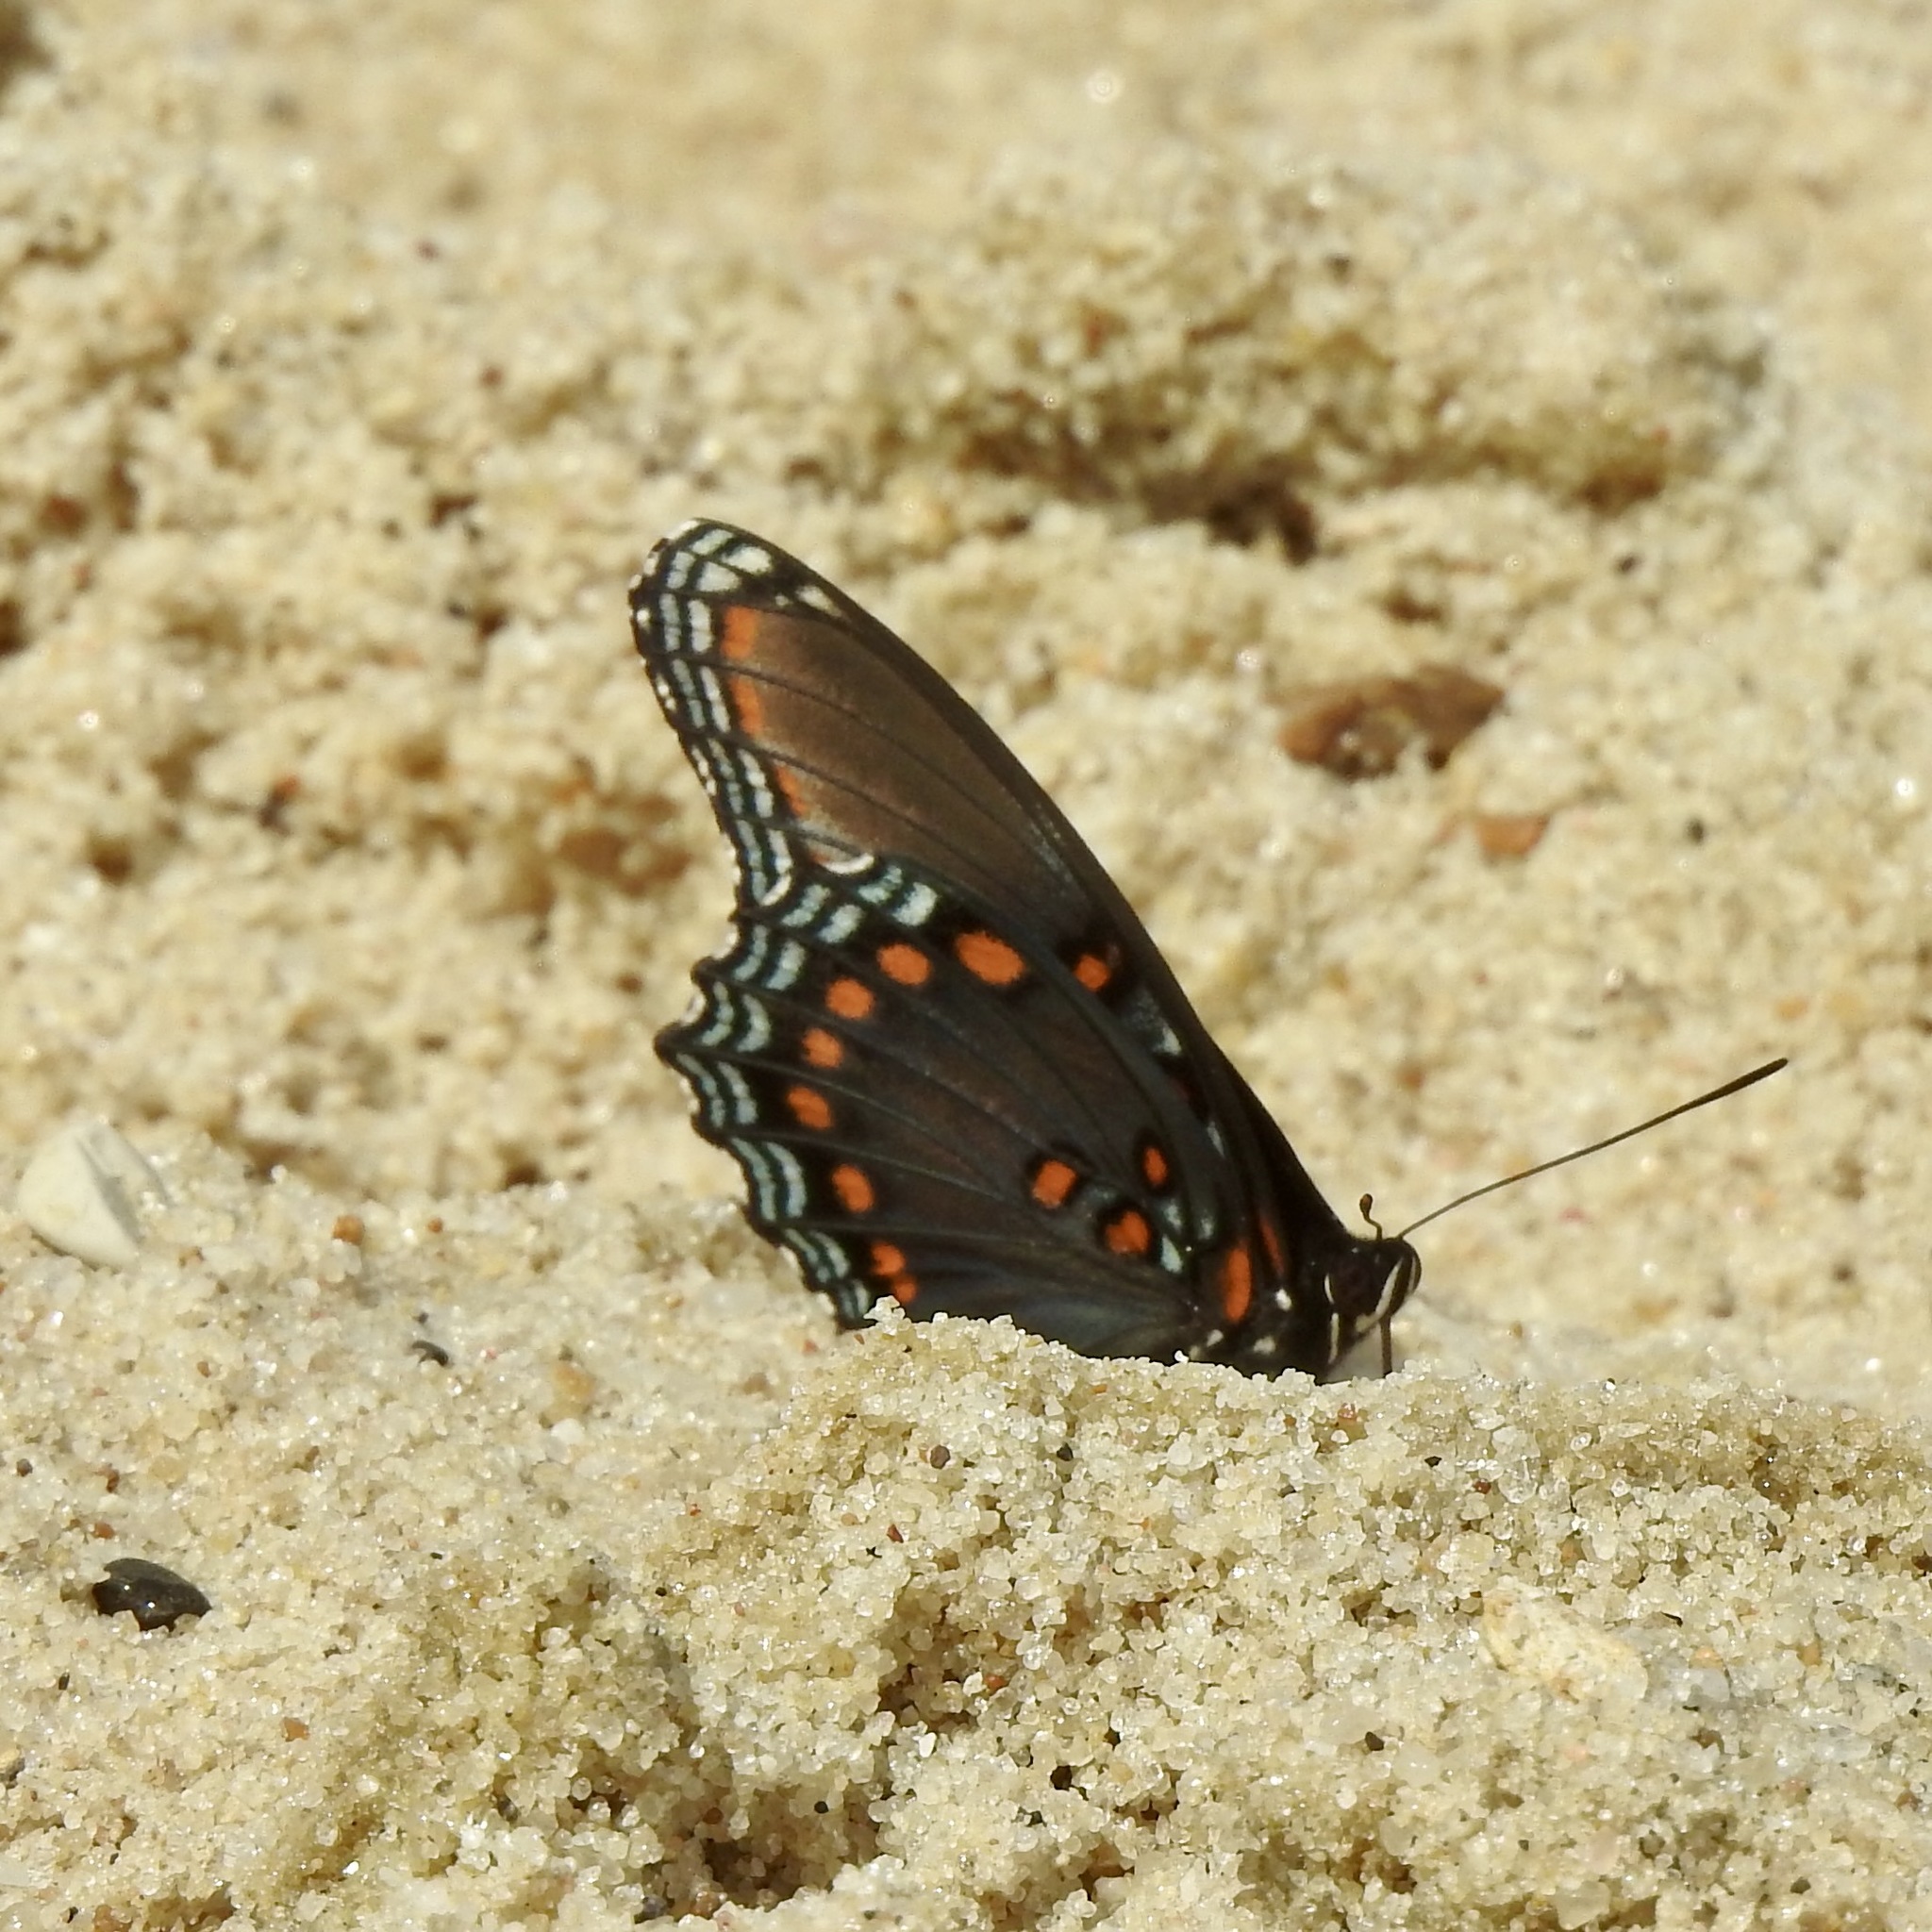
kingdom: Animalia
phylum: Arthropoda
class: Insecta
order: Lepidoptera
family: Nymphalidae
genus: Limenitis
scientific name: Limenitis astyanax
